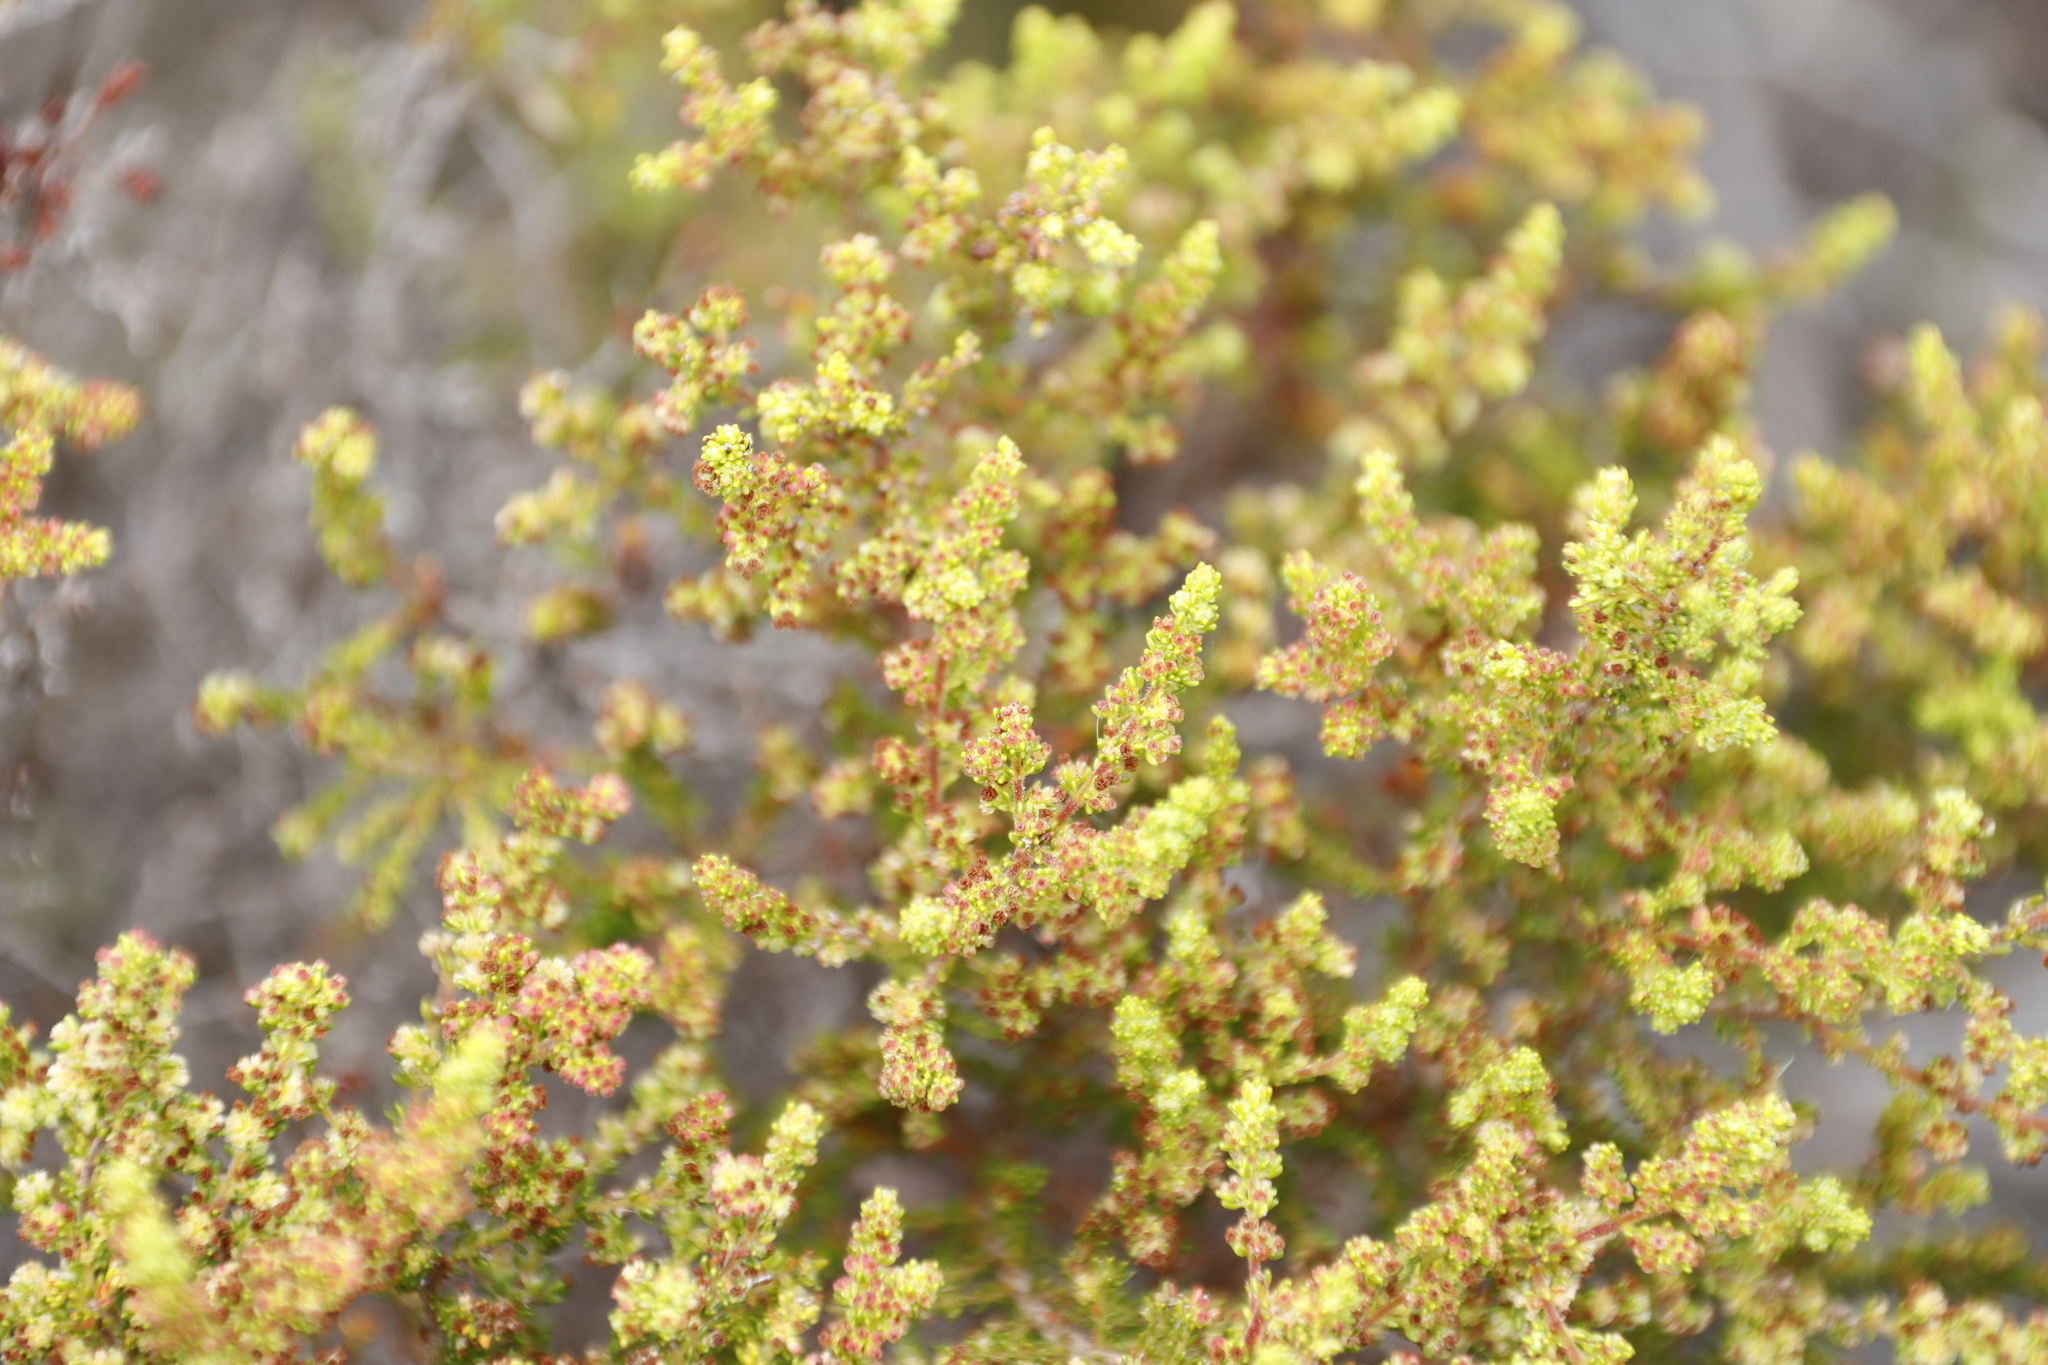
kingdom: Plantae
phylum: Tracheophyta
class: Magnoliopsida
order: Ericales
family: Ericaceae
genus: Erica
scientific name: Erica muscosa
